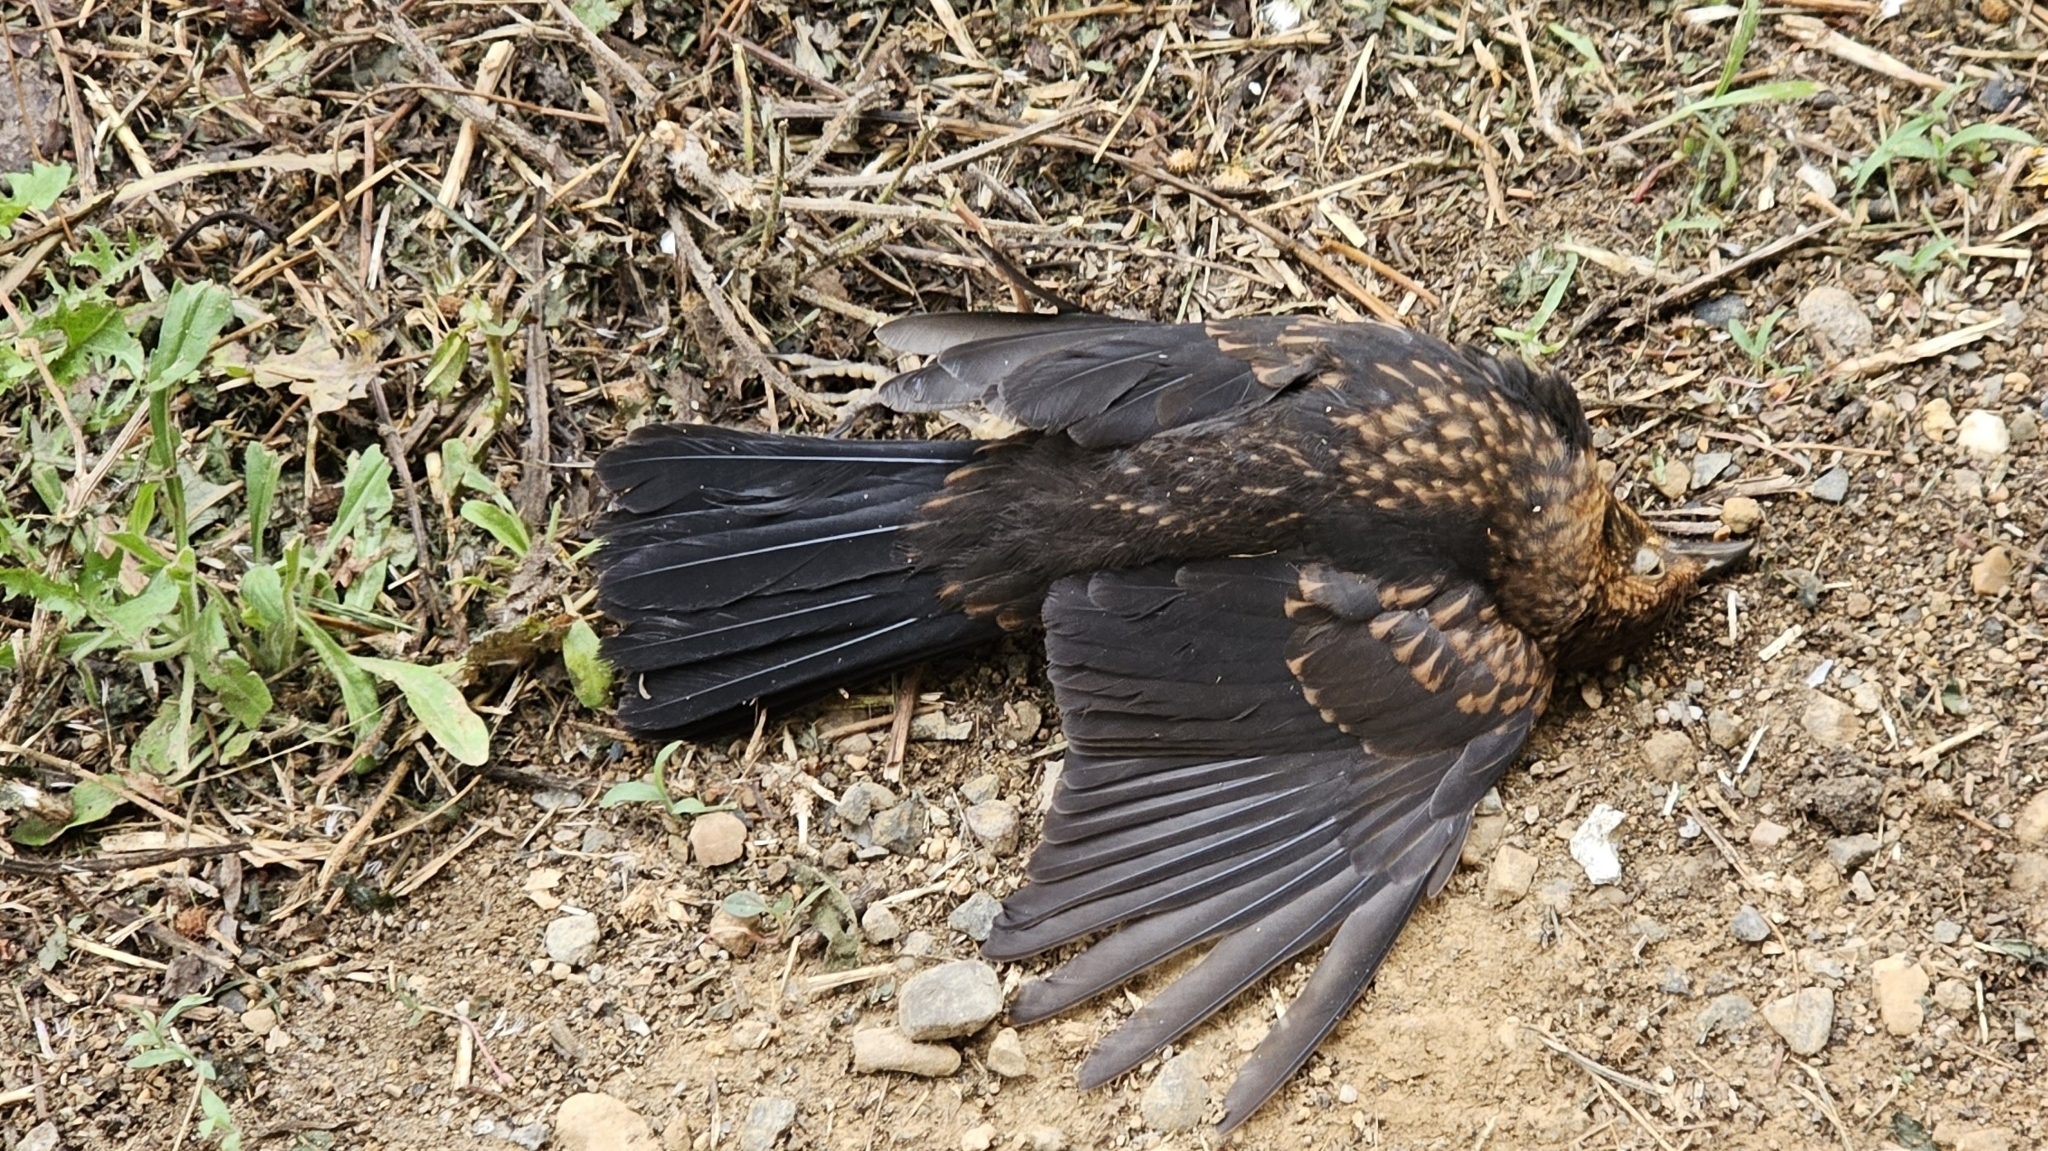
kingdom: Animalia
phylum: Chordata
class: Aves
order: Passeriformes
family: Turdidae
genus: Turdus
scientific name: Turdus merula
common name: Common blackbird
